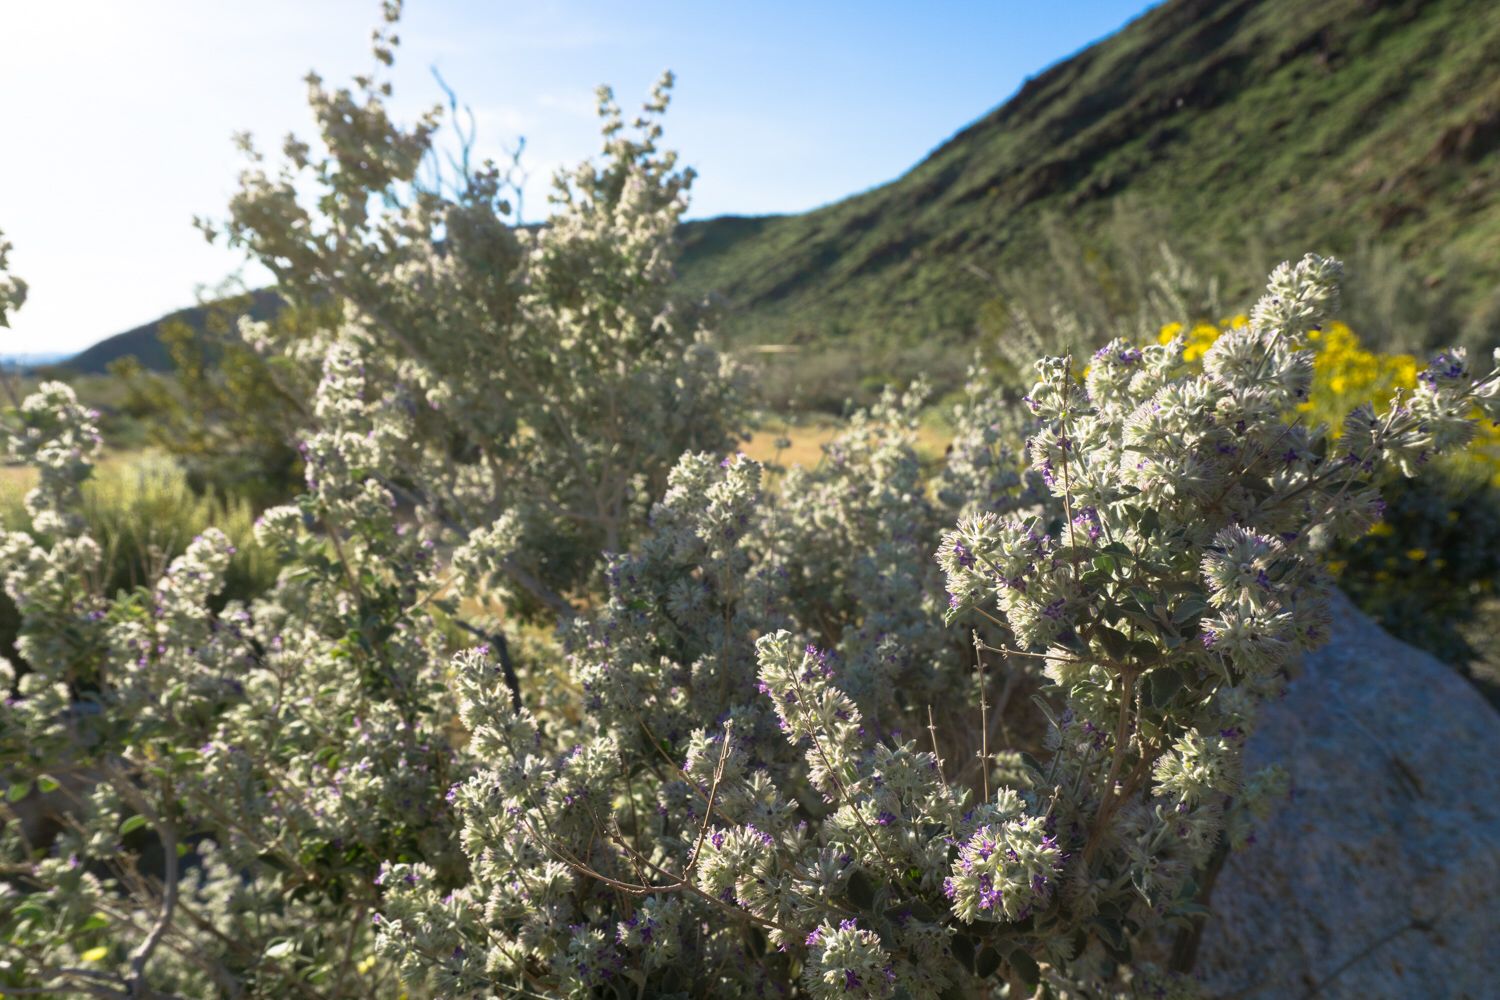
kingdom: Plantae
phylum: Tracheophyta
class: Magnoliopsida
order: Lamiales
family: Lamiaceae
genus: Condea
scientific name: Condea emoryi
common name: Chia
